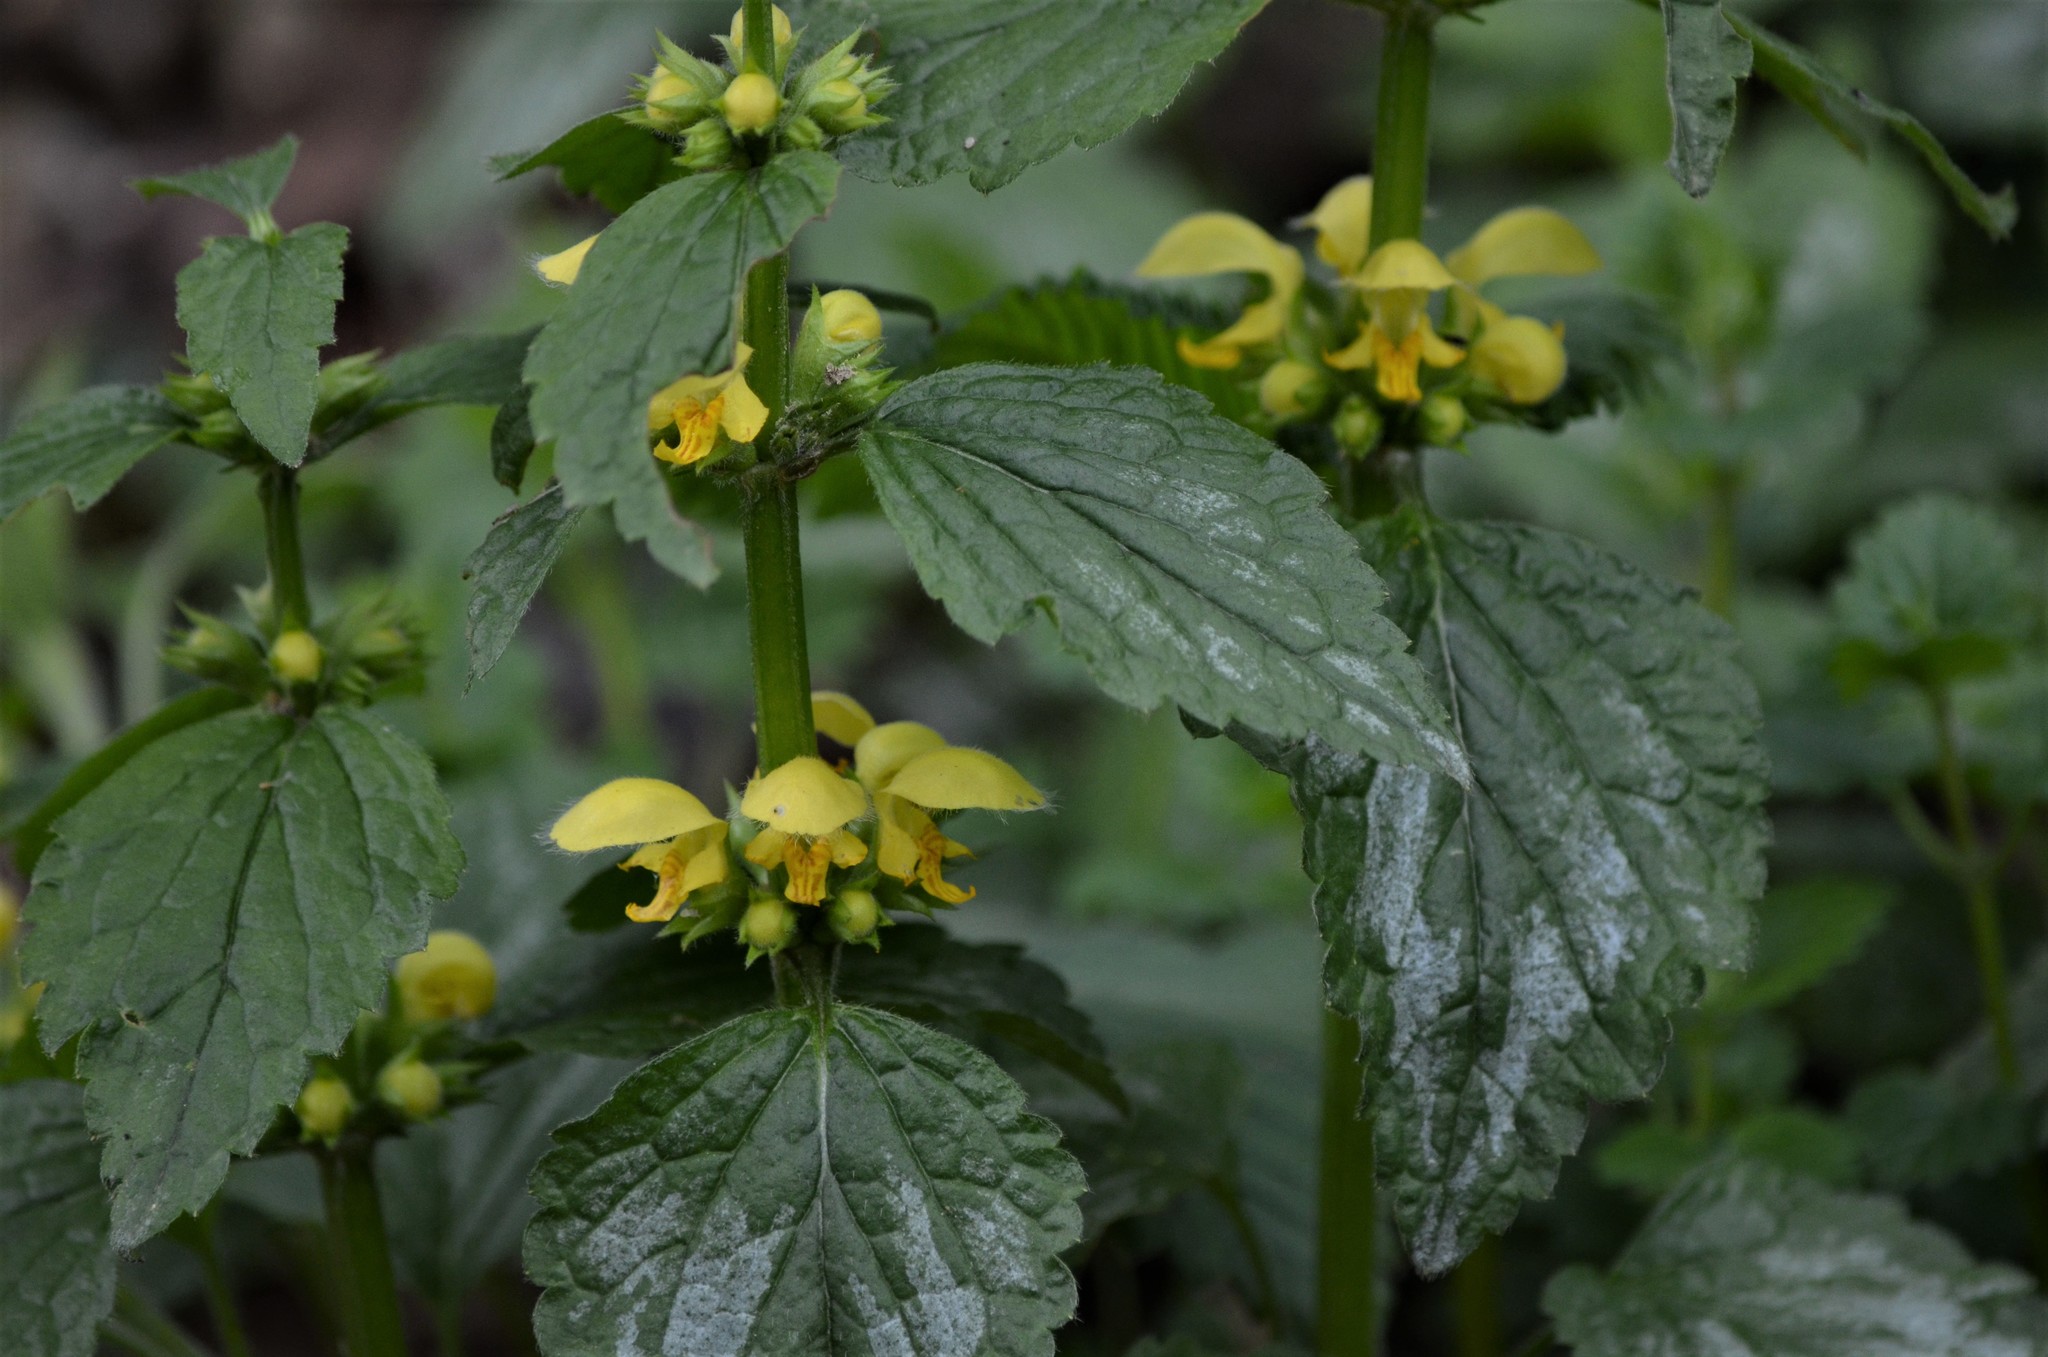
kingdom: Plantae
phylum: Tracheophyta
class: Magnoliopsida
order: Lamiales
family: Lamiaceae
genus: Lamium
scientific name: Lamium galeobdolon
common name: Yellow archangel
